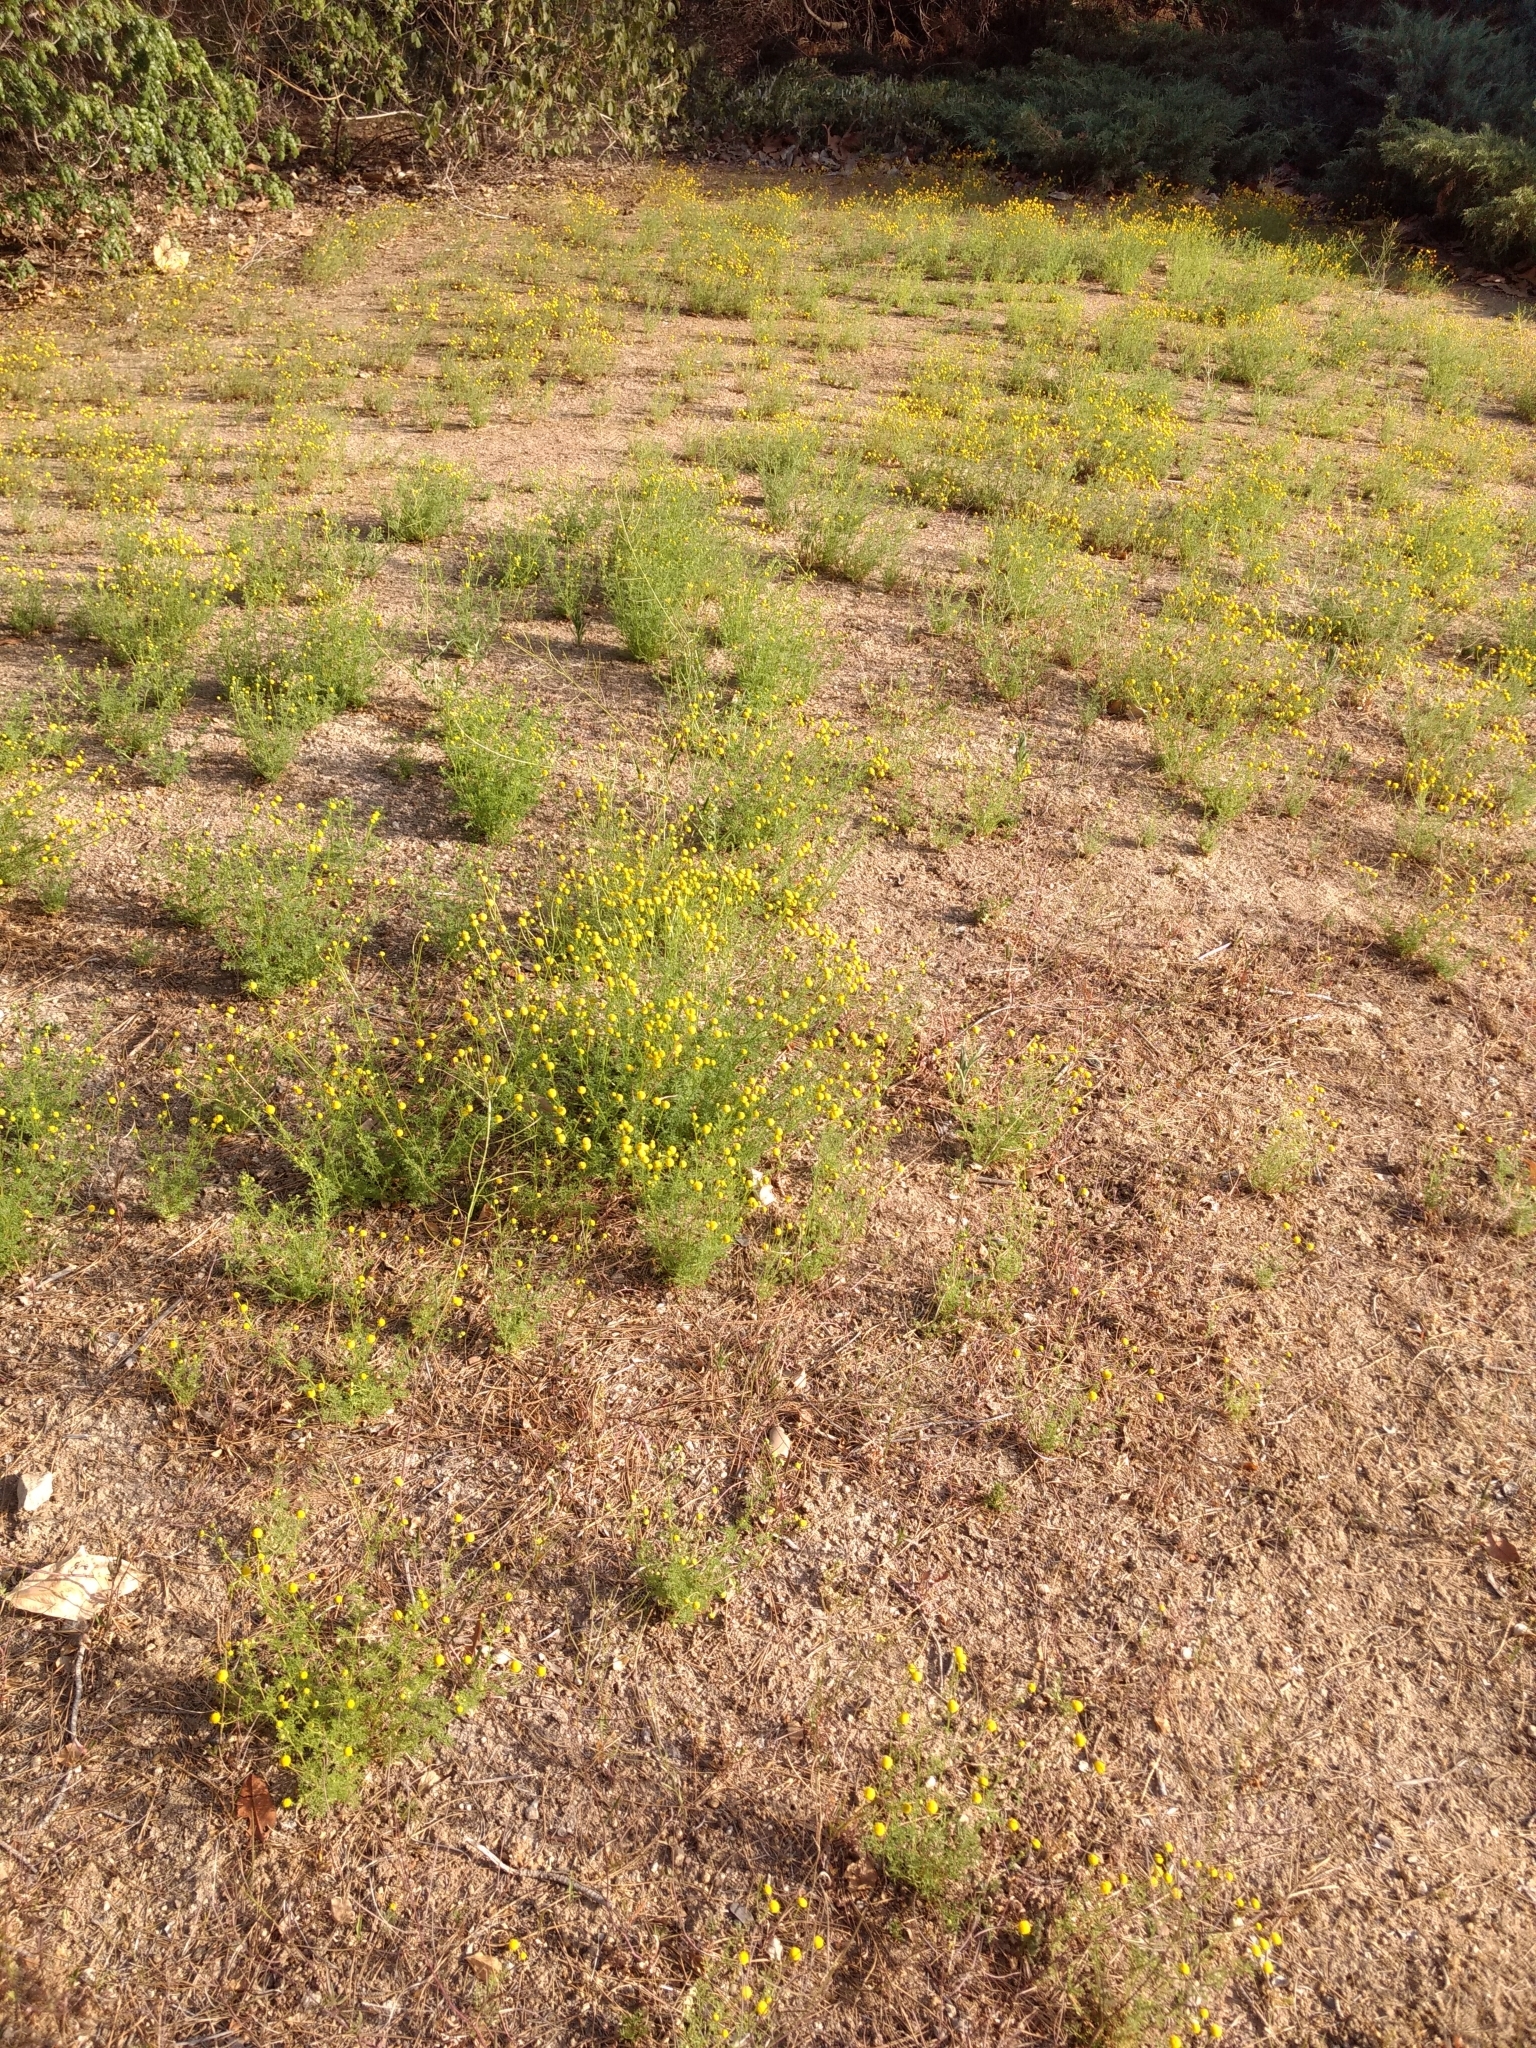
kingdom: Plantae
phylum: Tracheophyta
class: Magnoliopsida
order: Asterales
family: Asteraceae
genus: Oncosiphon
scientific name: Oncosiphon pilulifer
